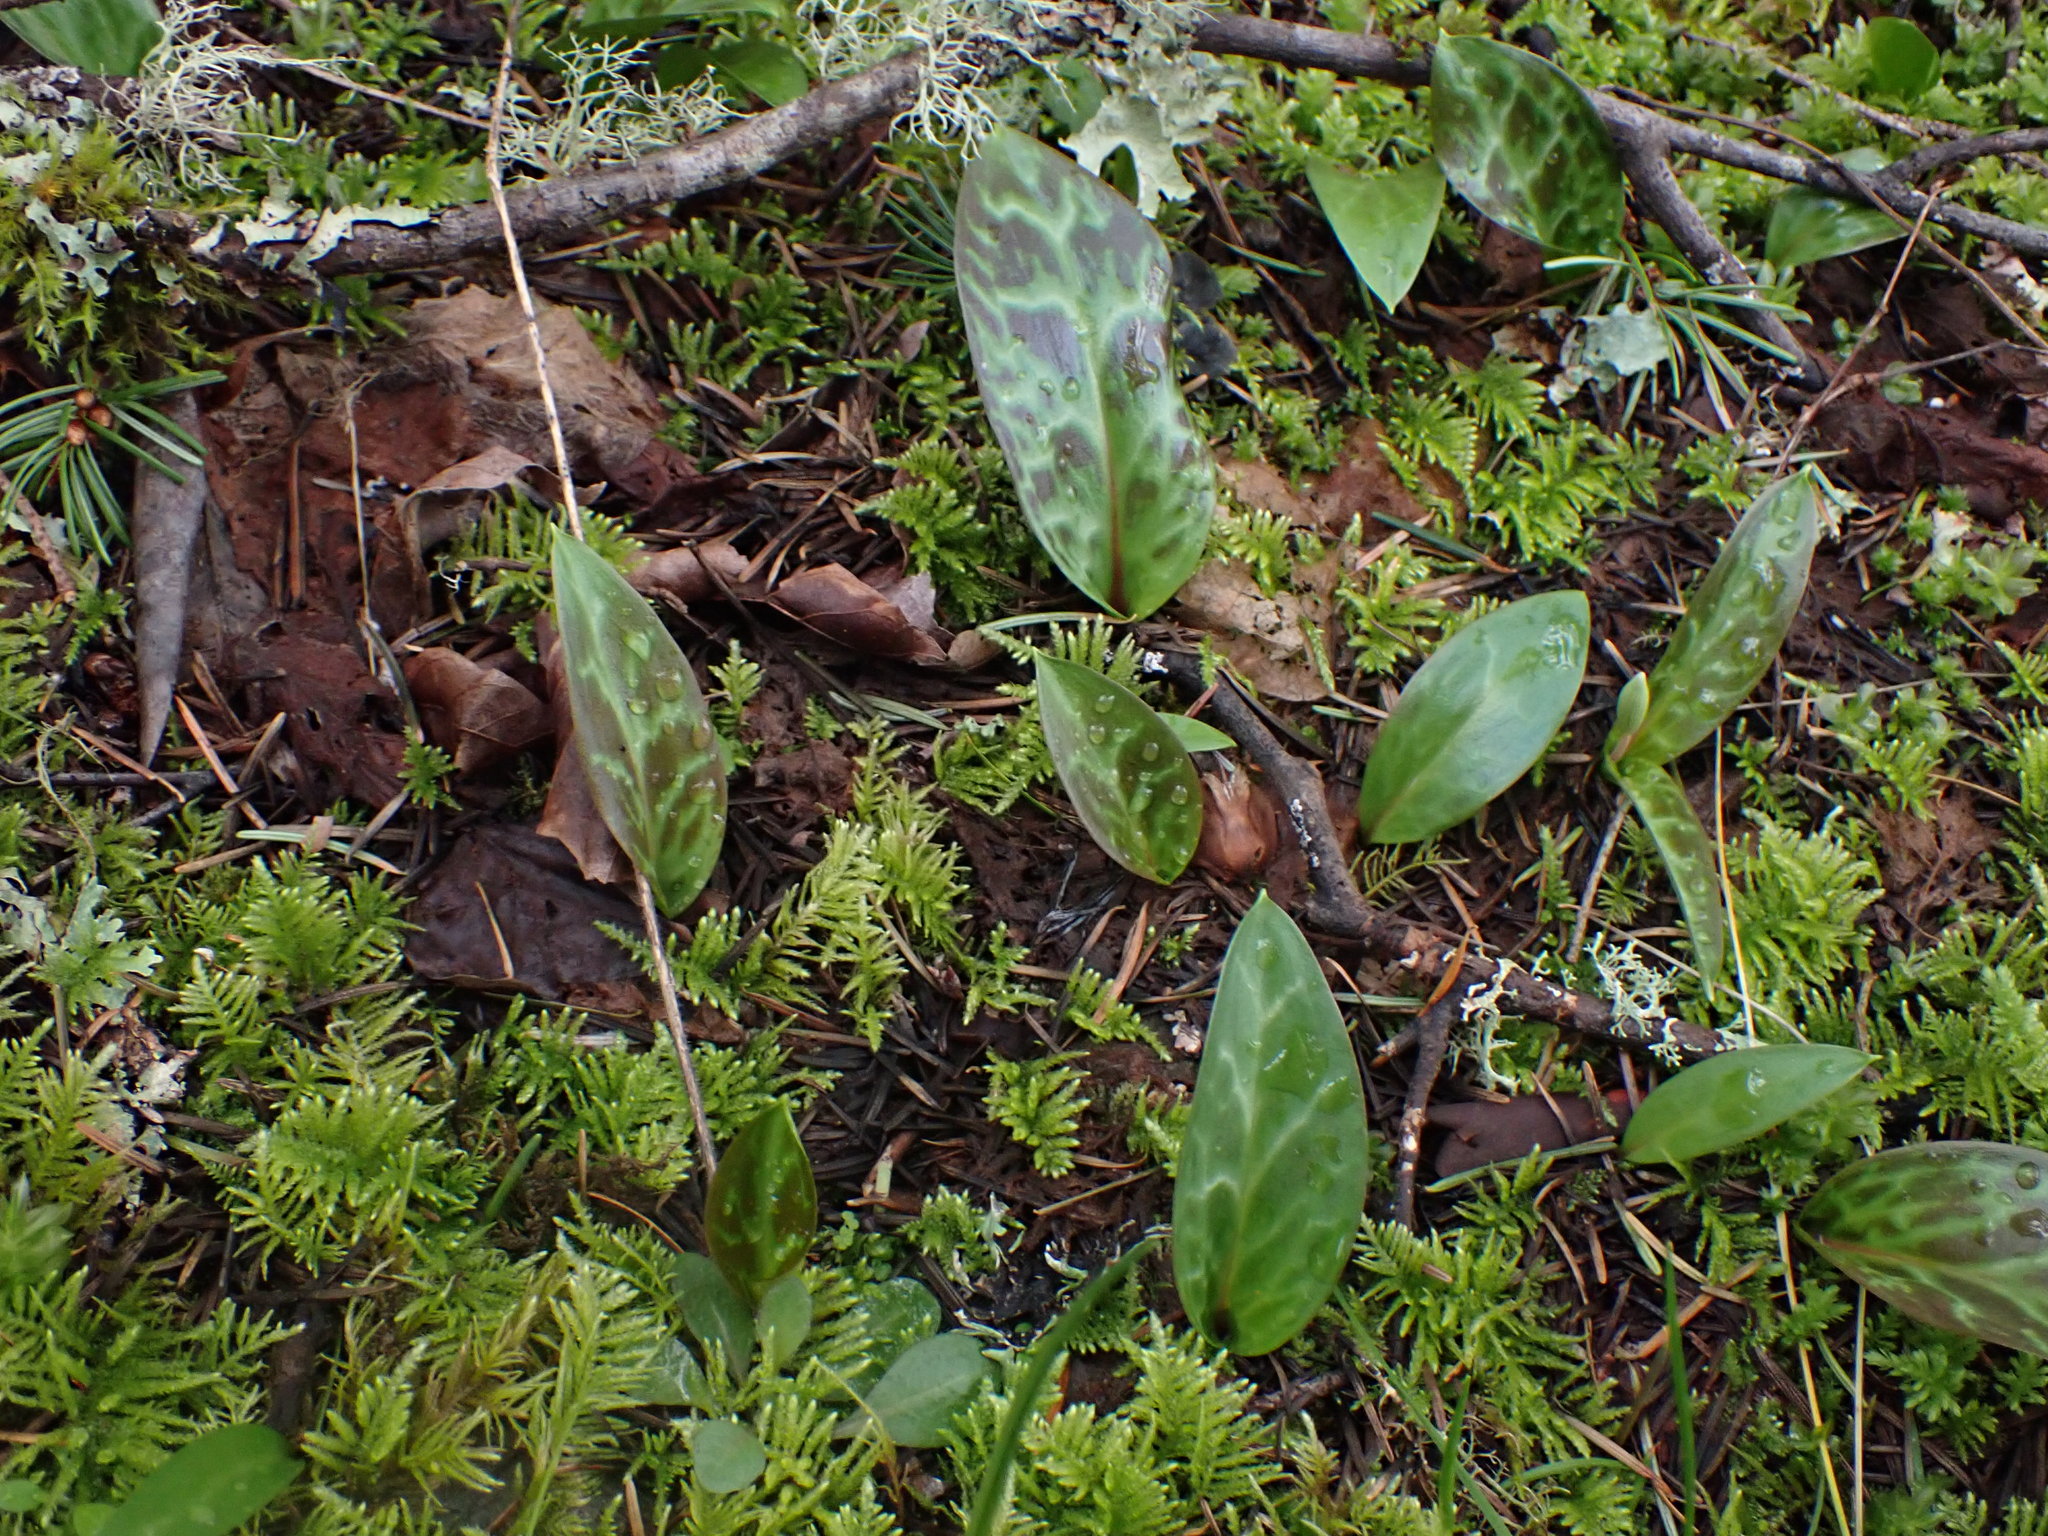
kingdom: Plantae
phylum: Tracheophyta
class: Liliopsida
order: Liliales
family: Liliaceae
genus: Erythronium
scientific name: Erythronium oregonum
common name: Giant adder's-tongue
